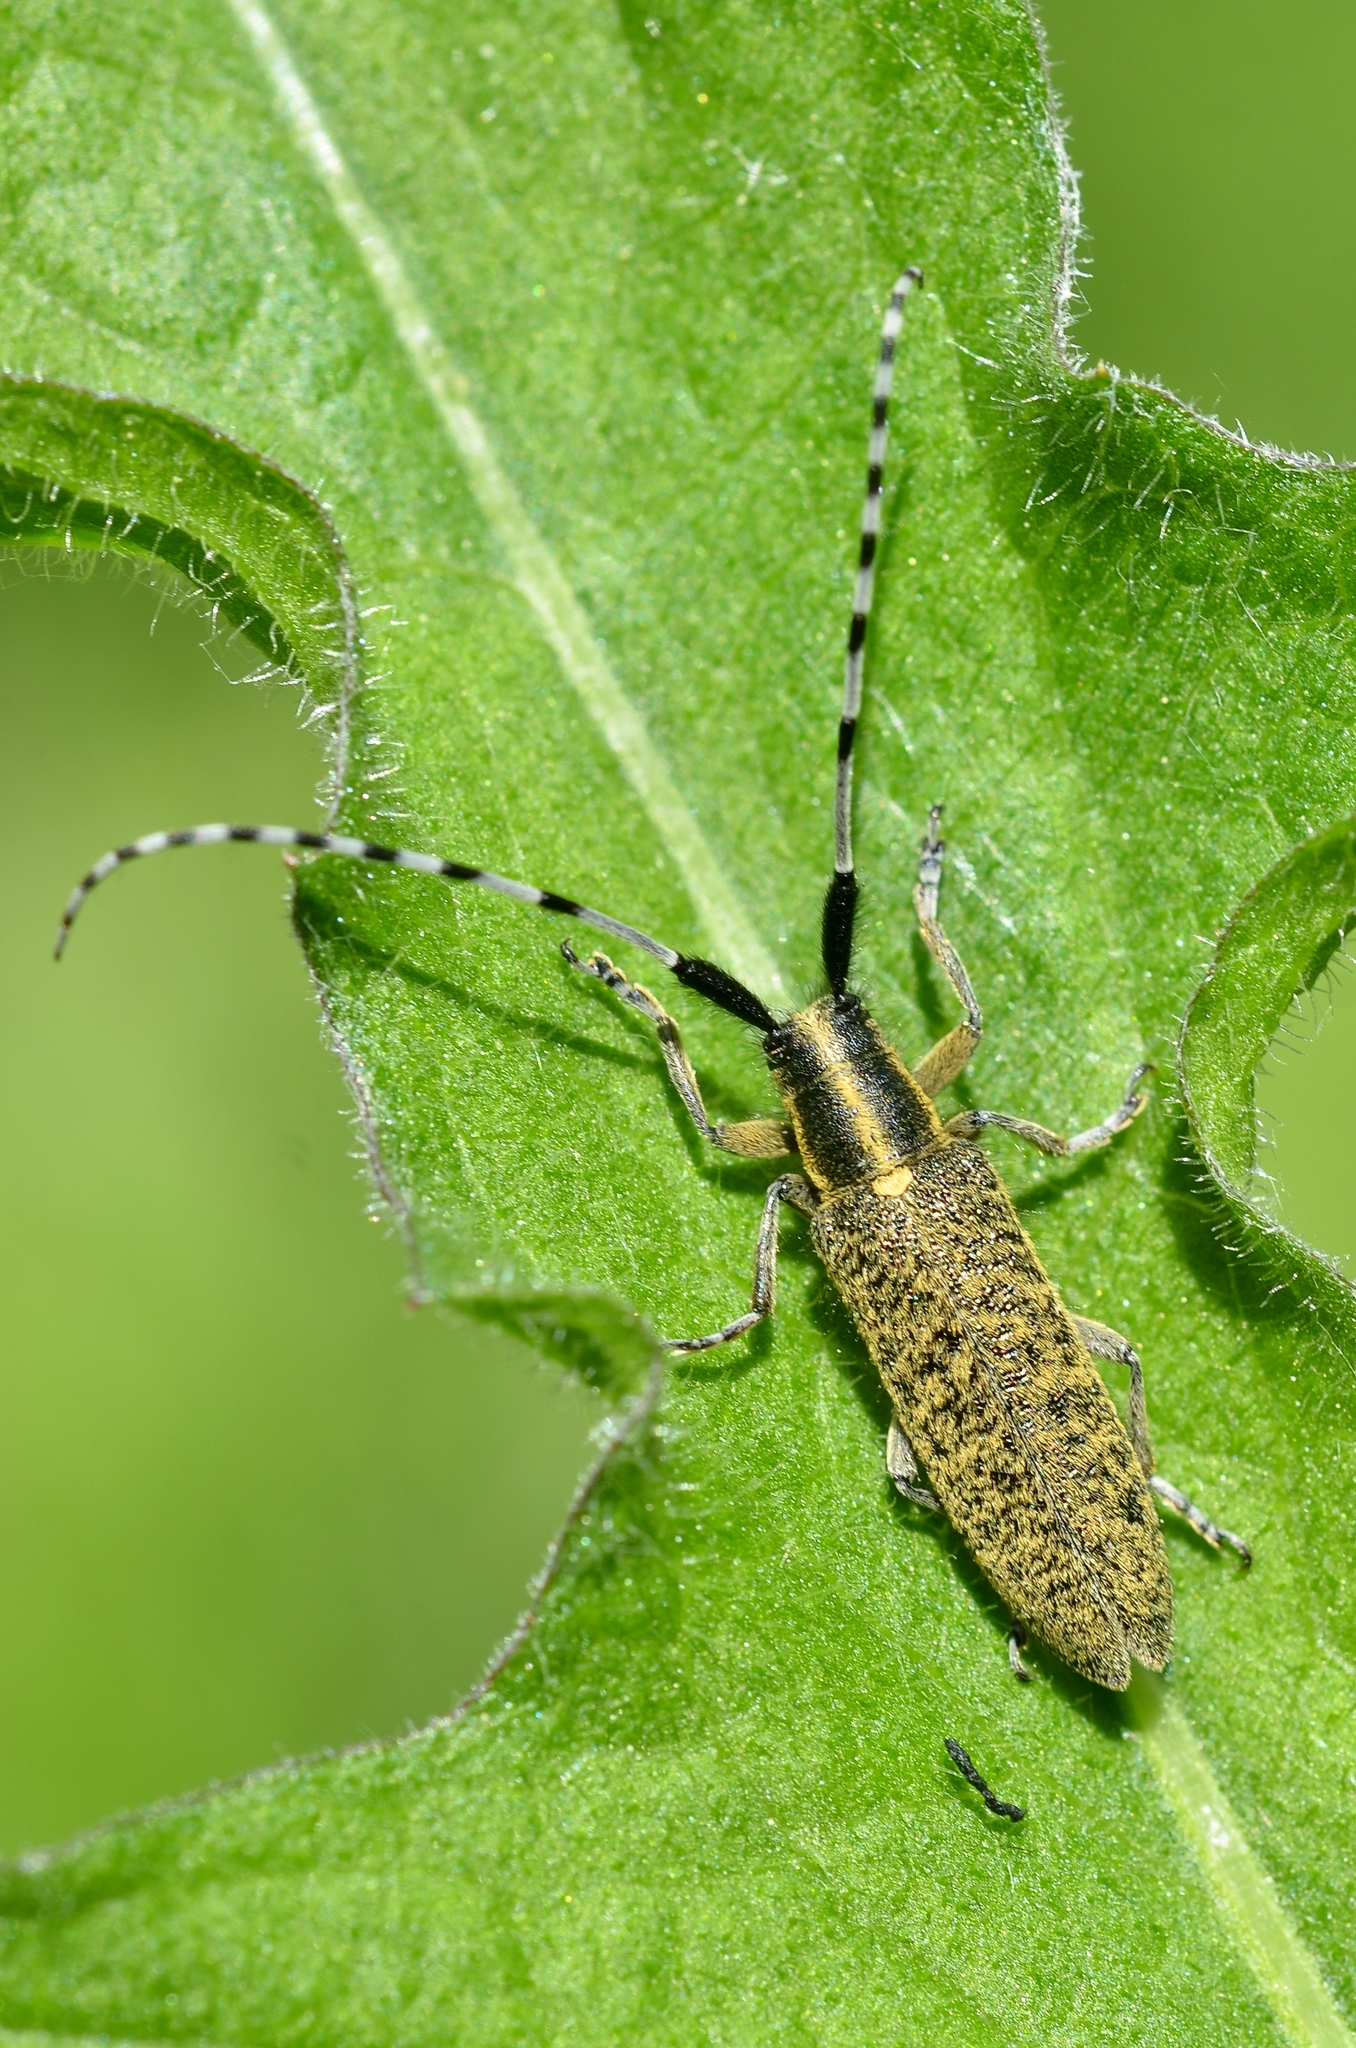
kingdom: Animalia
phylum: Arthropoda
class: Insecta
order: Coleoptera
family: Cerambycidae
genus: Agapanthia
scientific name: Agapanthia villosoviridescens
